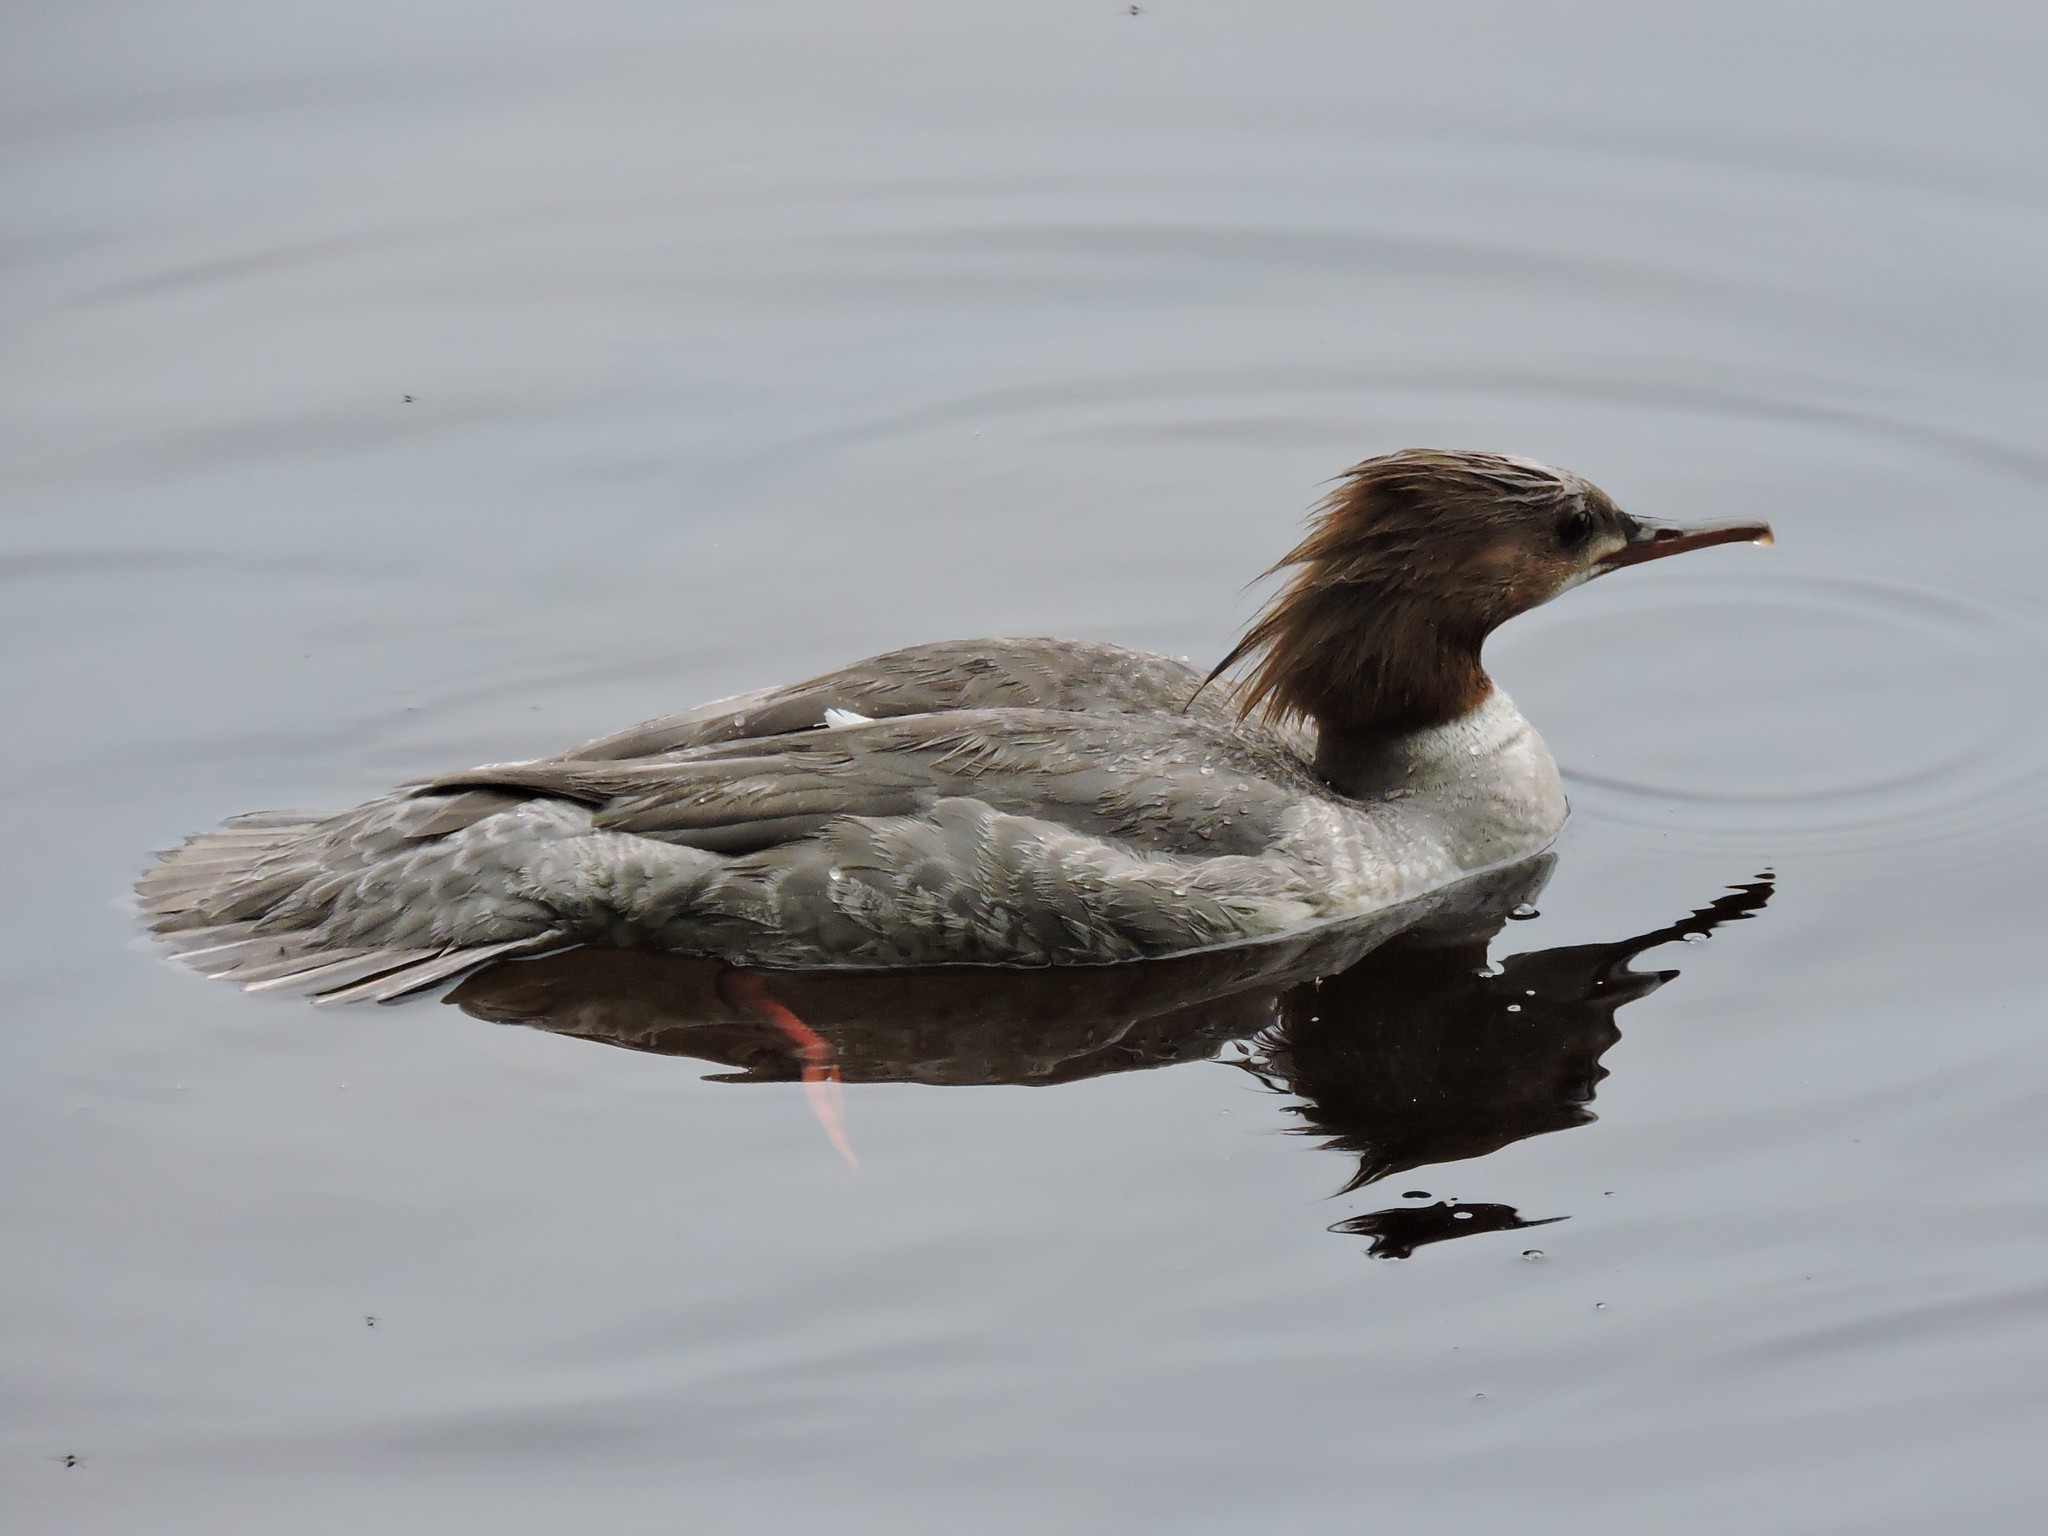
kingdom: Animalia
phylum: Chordata
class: Aves
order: Anseriformes
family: Anatidae
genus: Mergus
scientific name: Mergus merganser
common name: Common merganser
